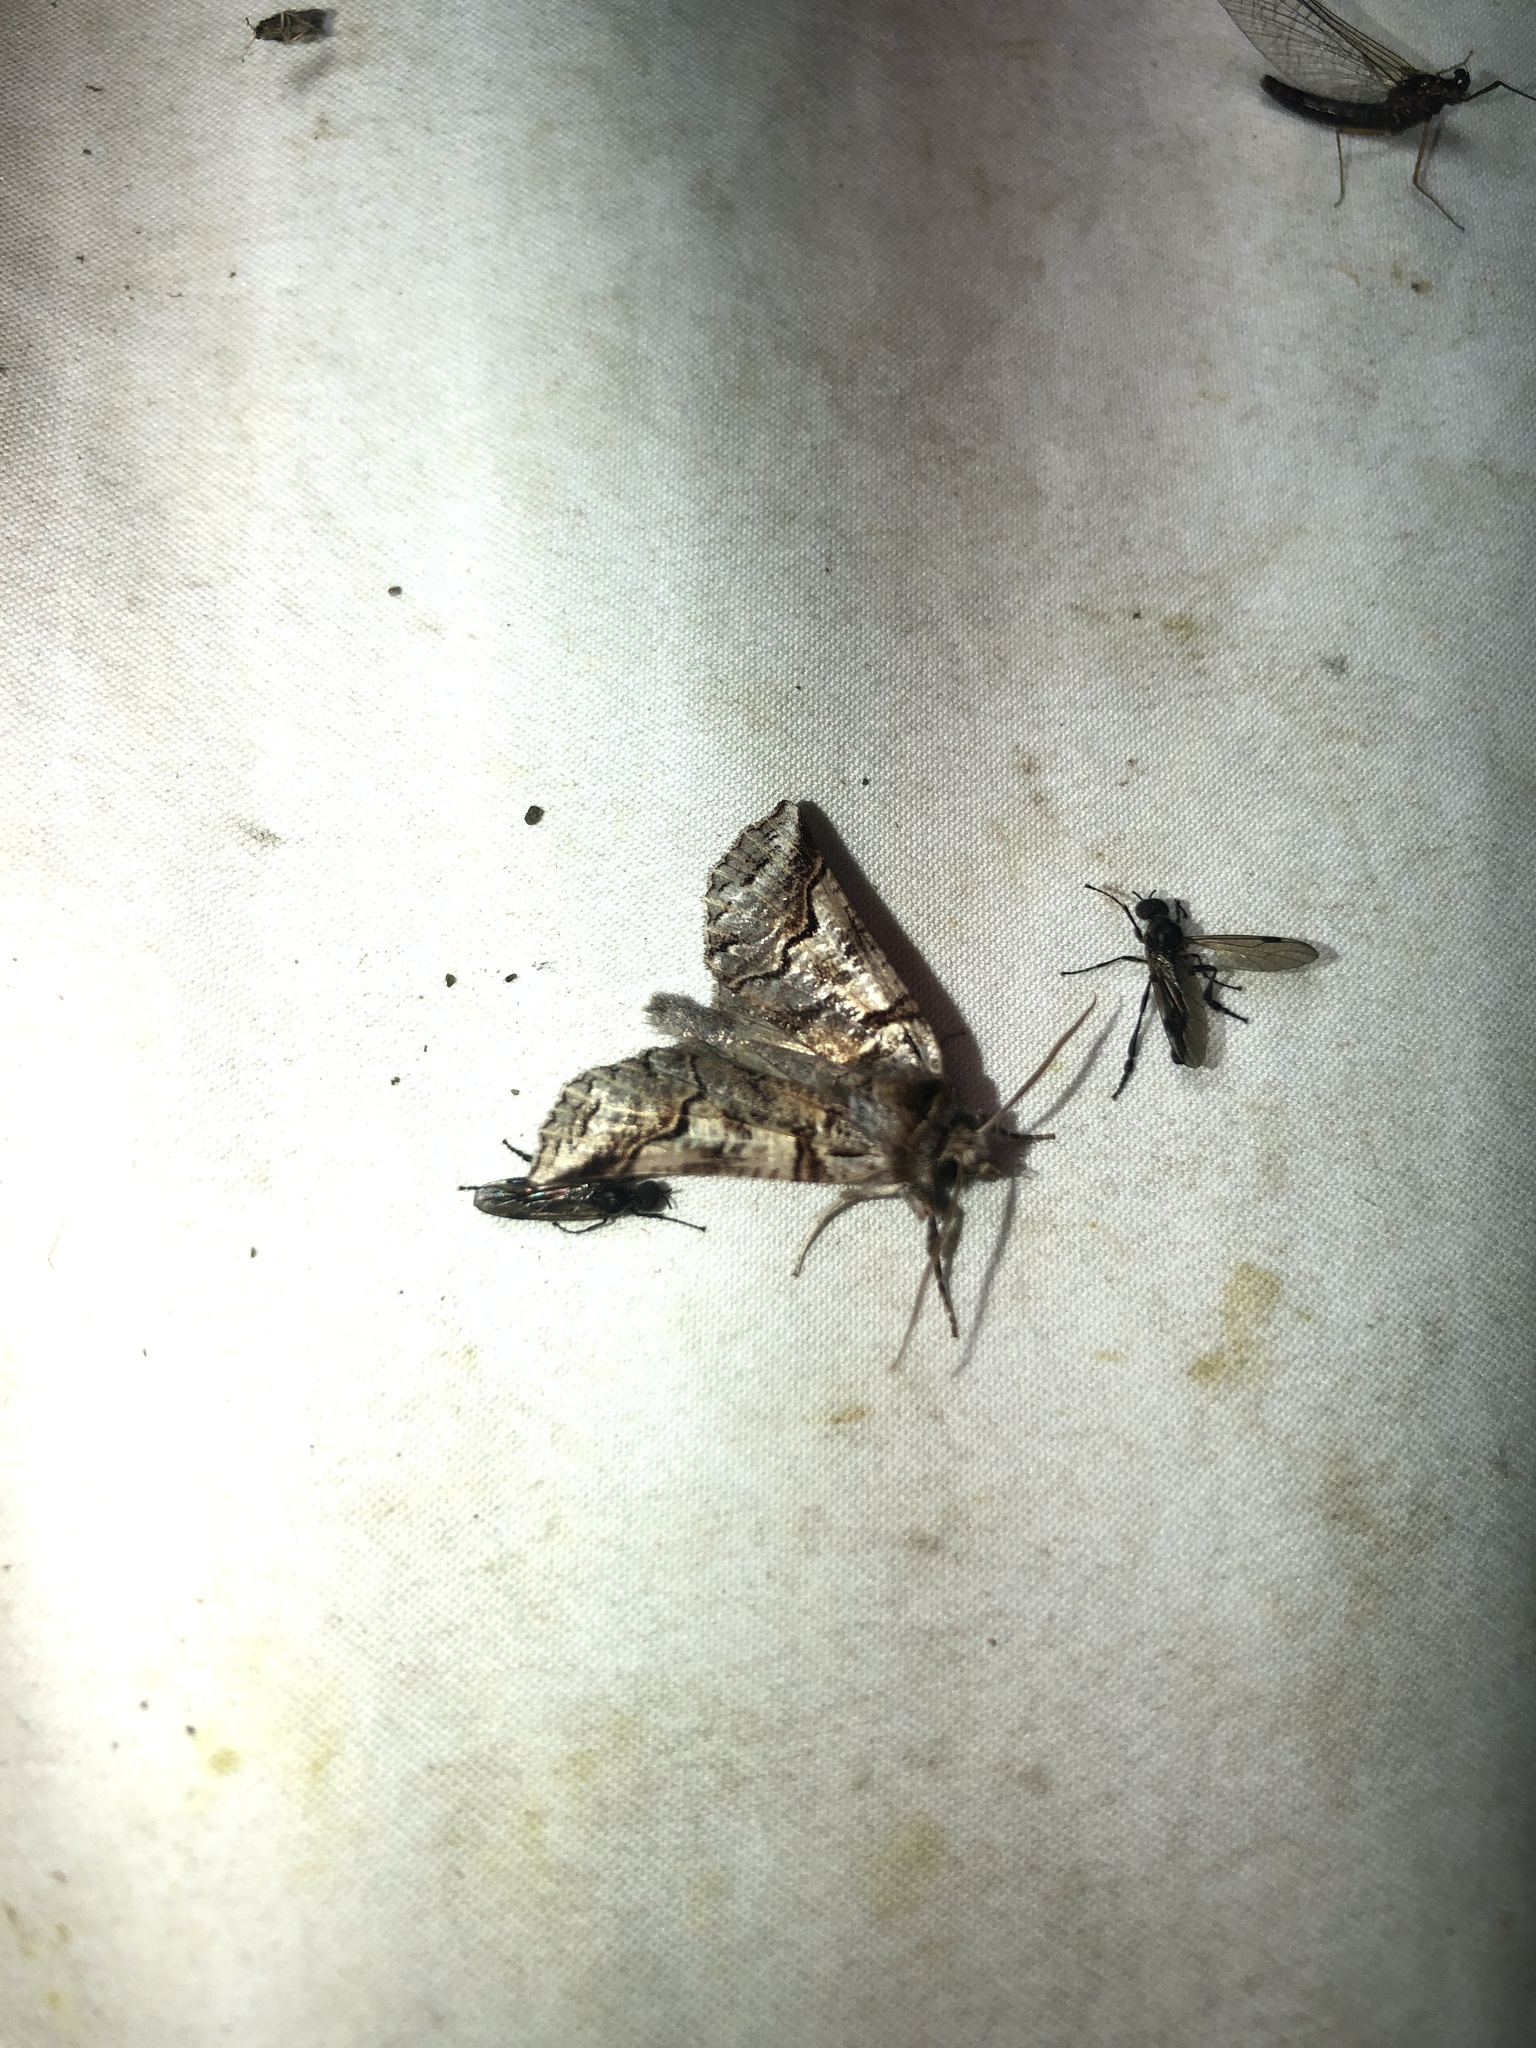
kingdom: Animalia
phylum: Arthropoda
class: Insecta
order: Lepidoptera
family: Geometridae
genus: Declana
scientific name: Declana
